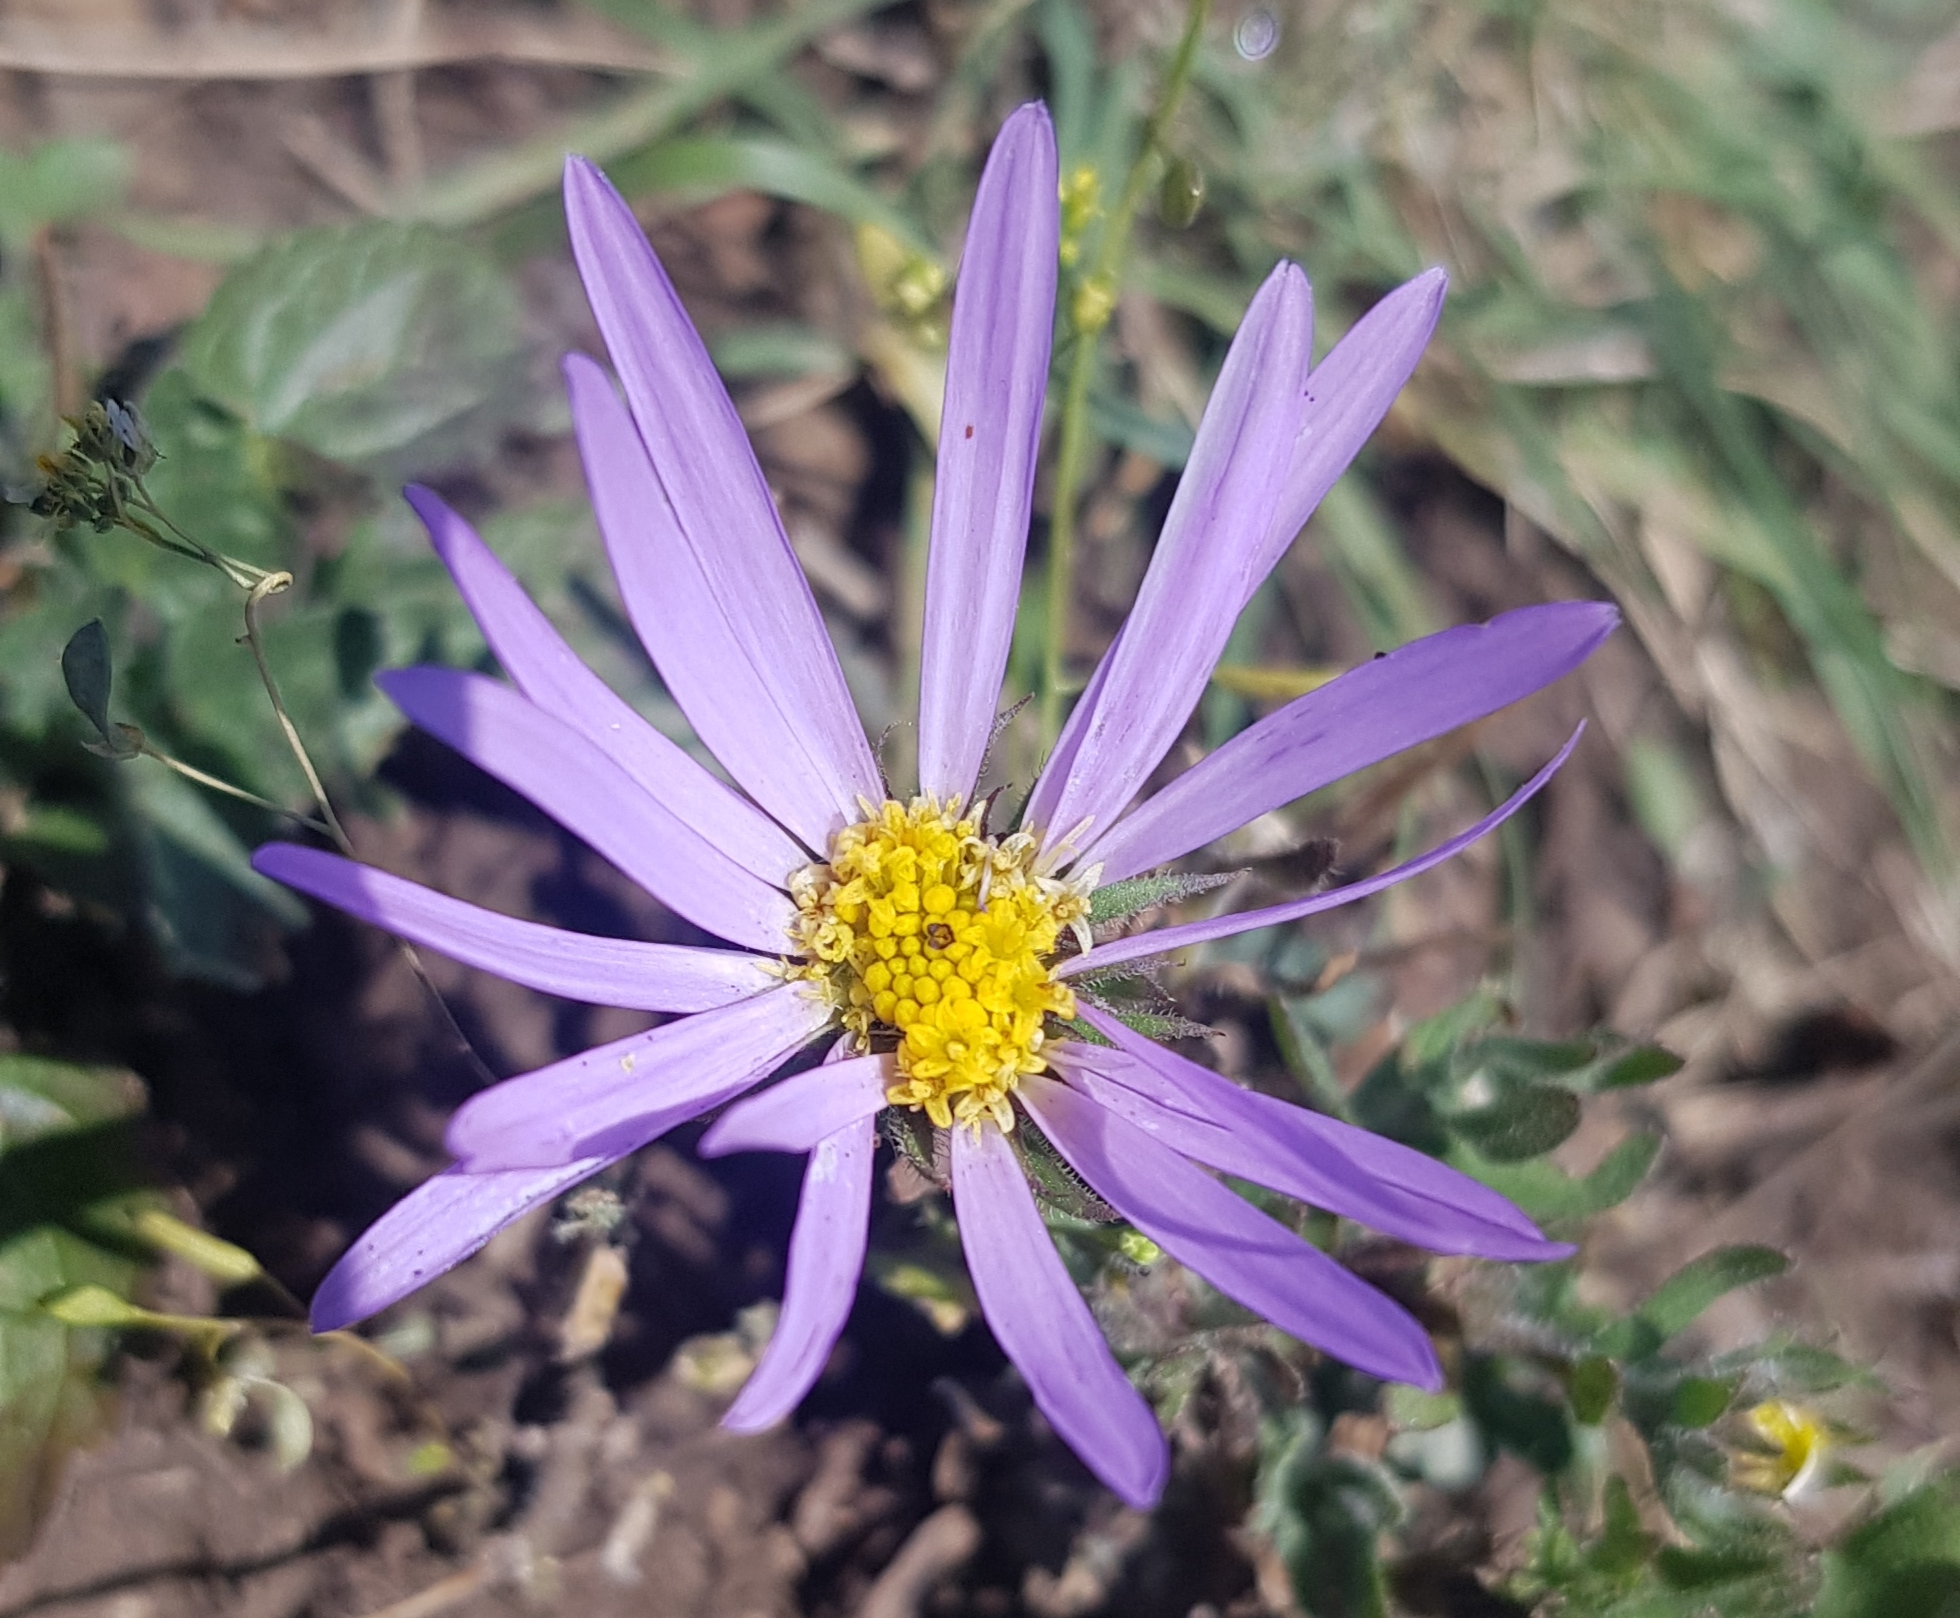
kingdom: Plantae
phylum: Tracheophyta
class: Magnoliopsida
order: Asterales
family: Asteraceae
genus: Heteropappus
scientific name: Heteropappus altaicus
